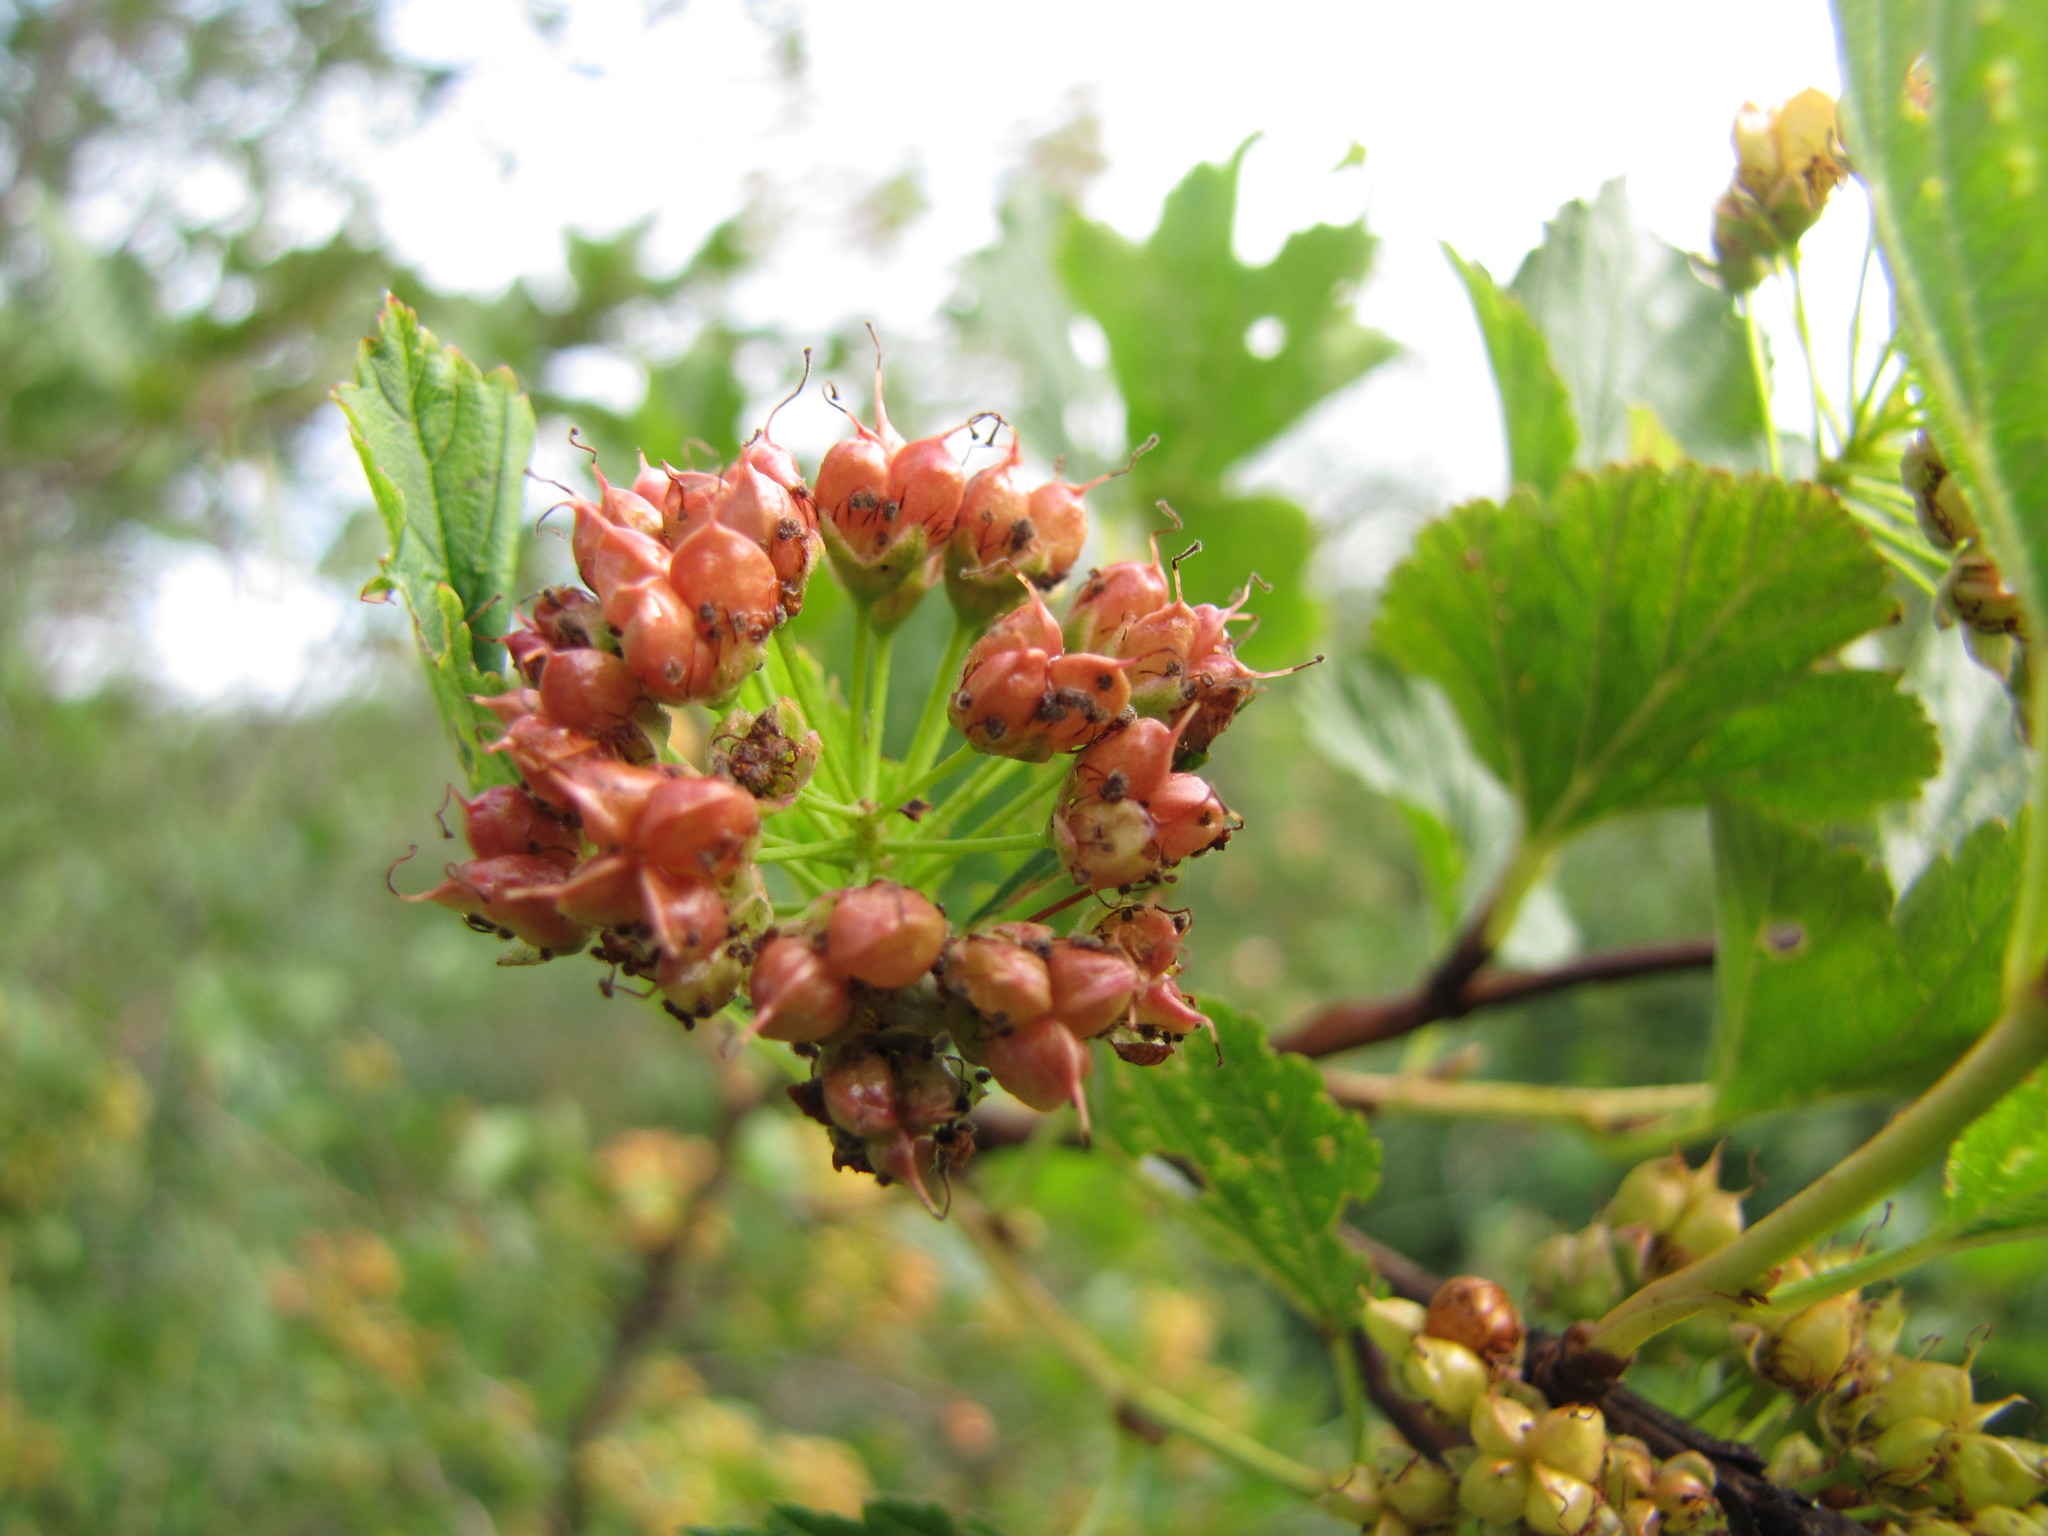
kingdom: Plantae
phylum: Tracheophyta
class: Magnoliopsida
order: Rosales
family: Rosaceae
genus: Physocarpus
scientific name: Physocarpus opulifolius
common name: Ninebark
